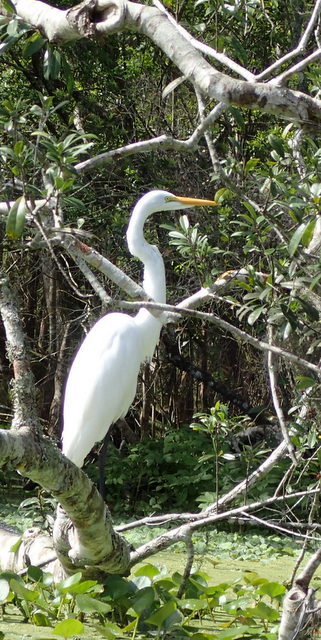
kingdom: Animalia
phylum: Chordata
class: Aves
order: Pelecaniformes
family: Ardeidae
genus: Ardea
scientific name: Ardea alba
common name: Great egret
